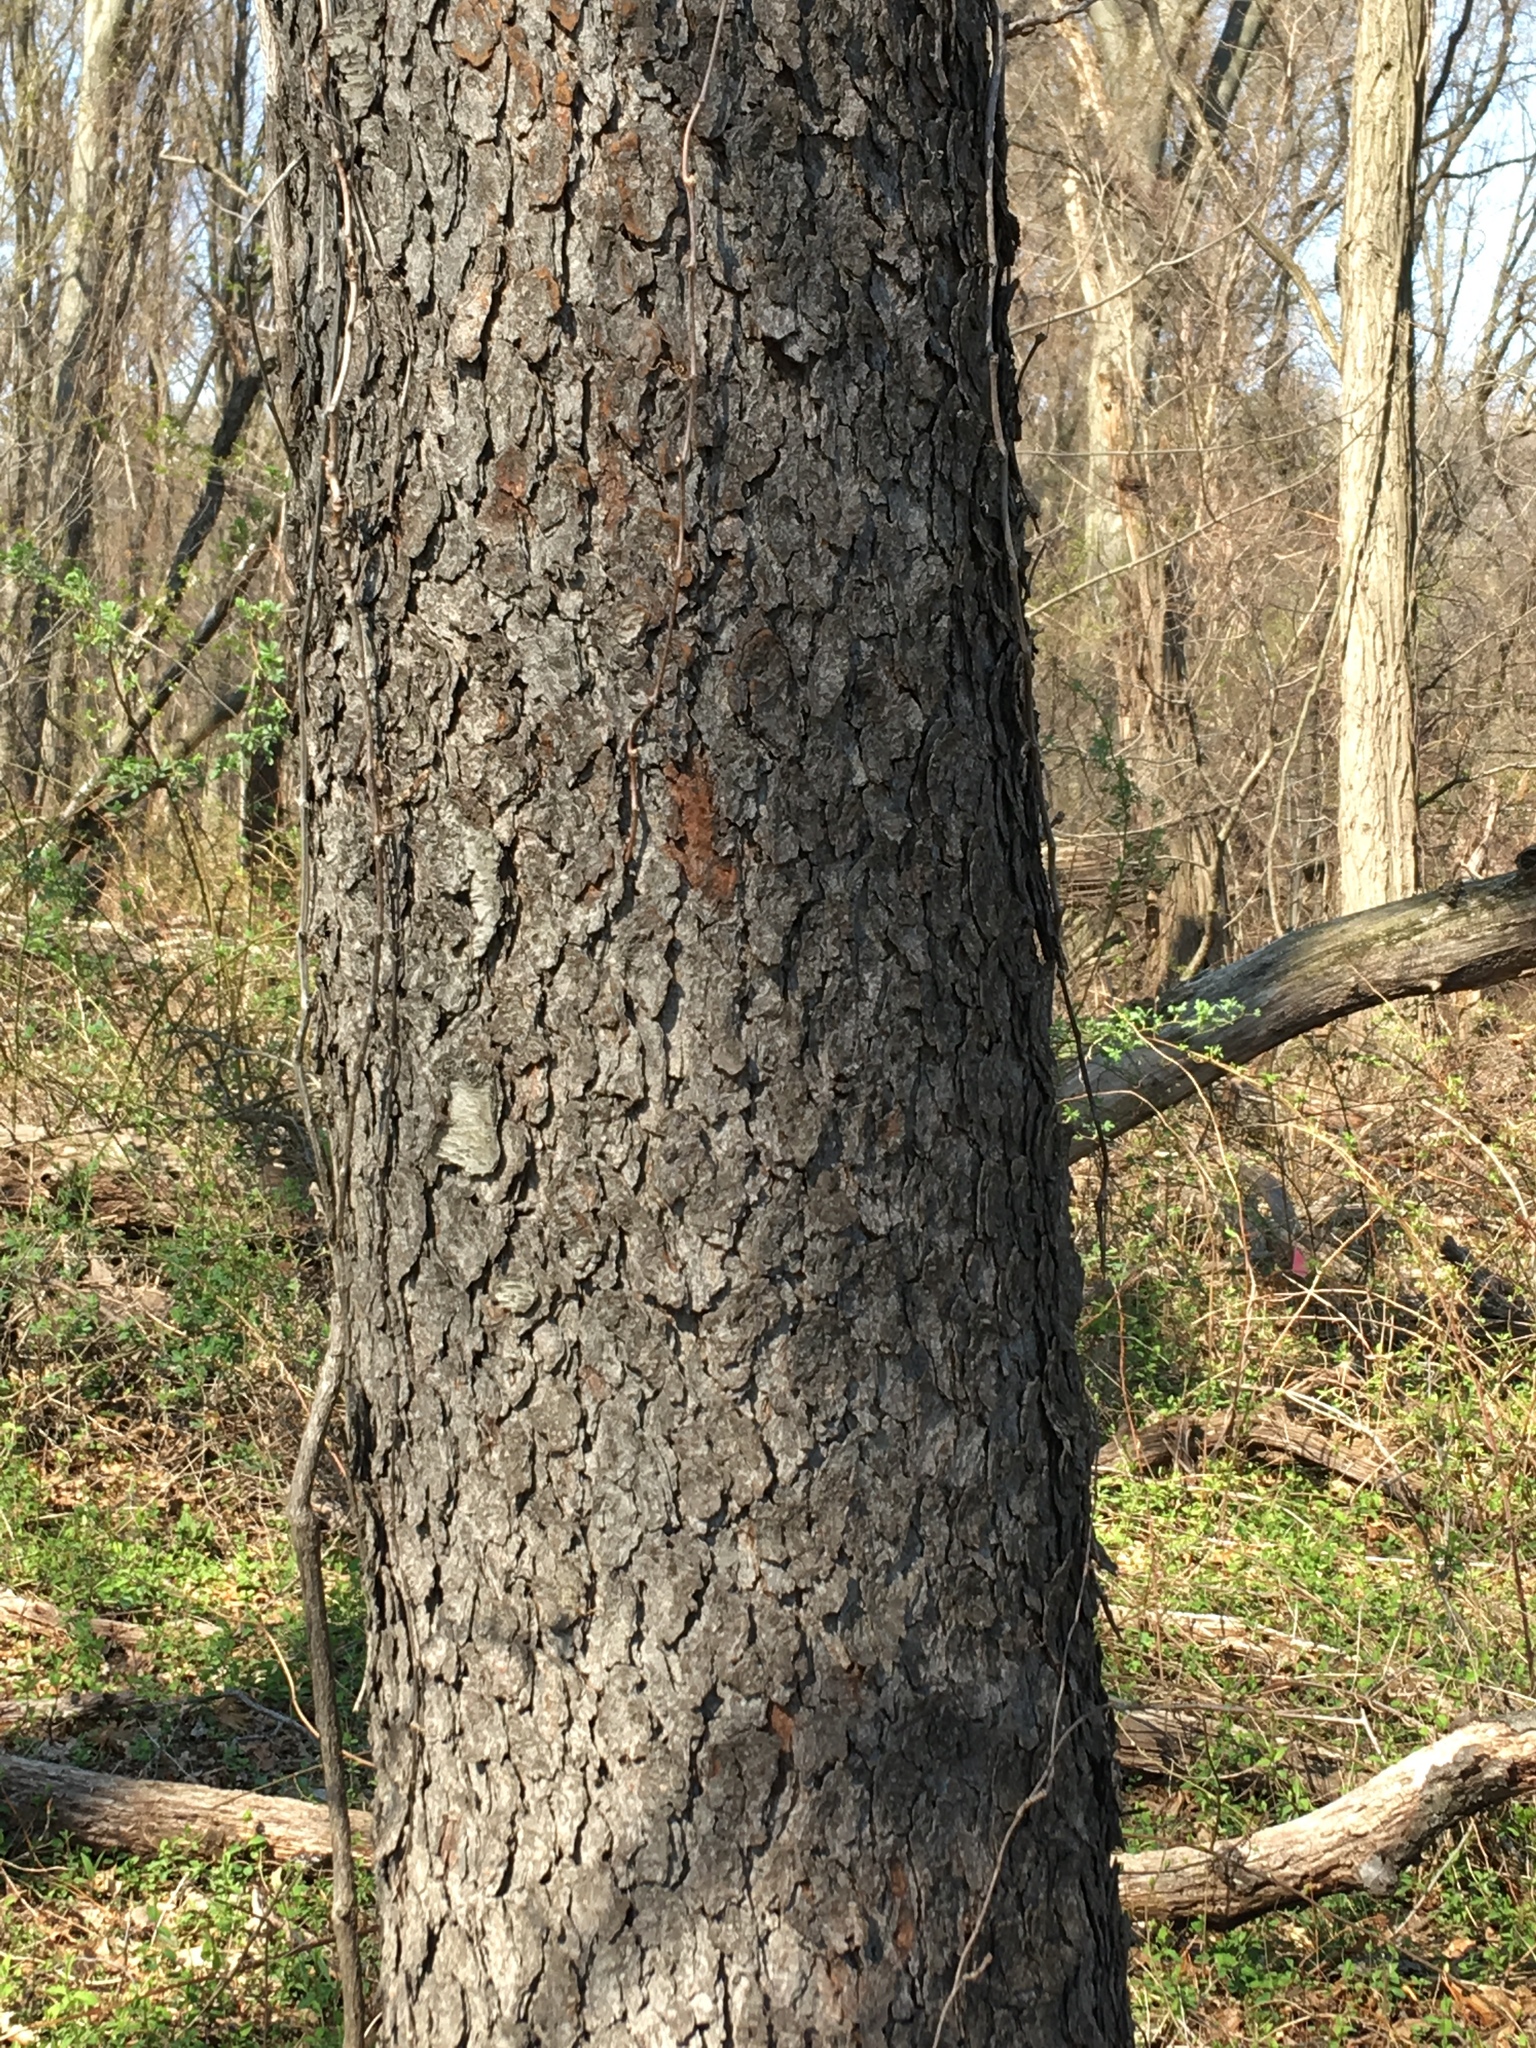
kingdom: Plantae
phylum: Tracheophyta
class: Magnoliopsida
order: Rosales
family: Rosaceae
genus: Prunus
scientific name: Prunus serotina
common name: Black cherry
